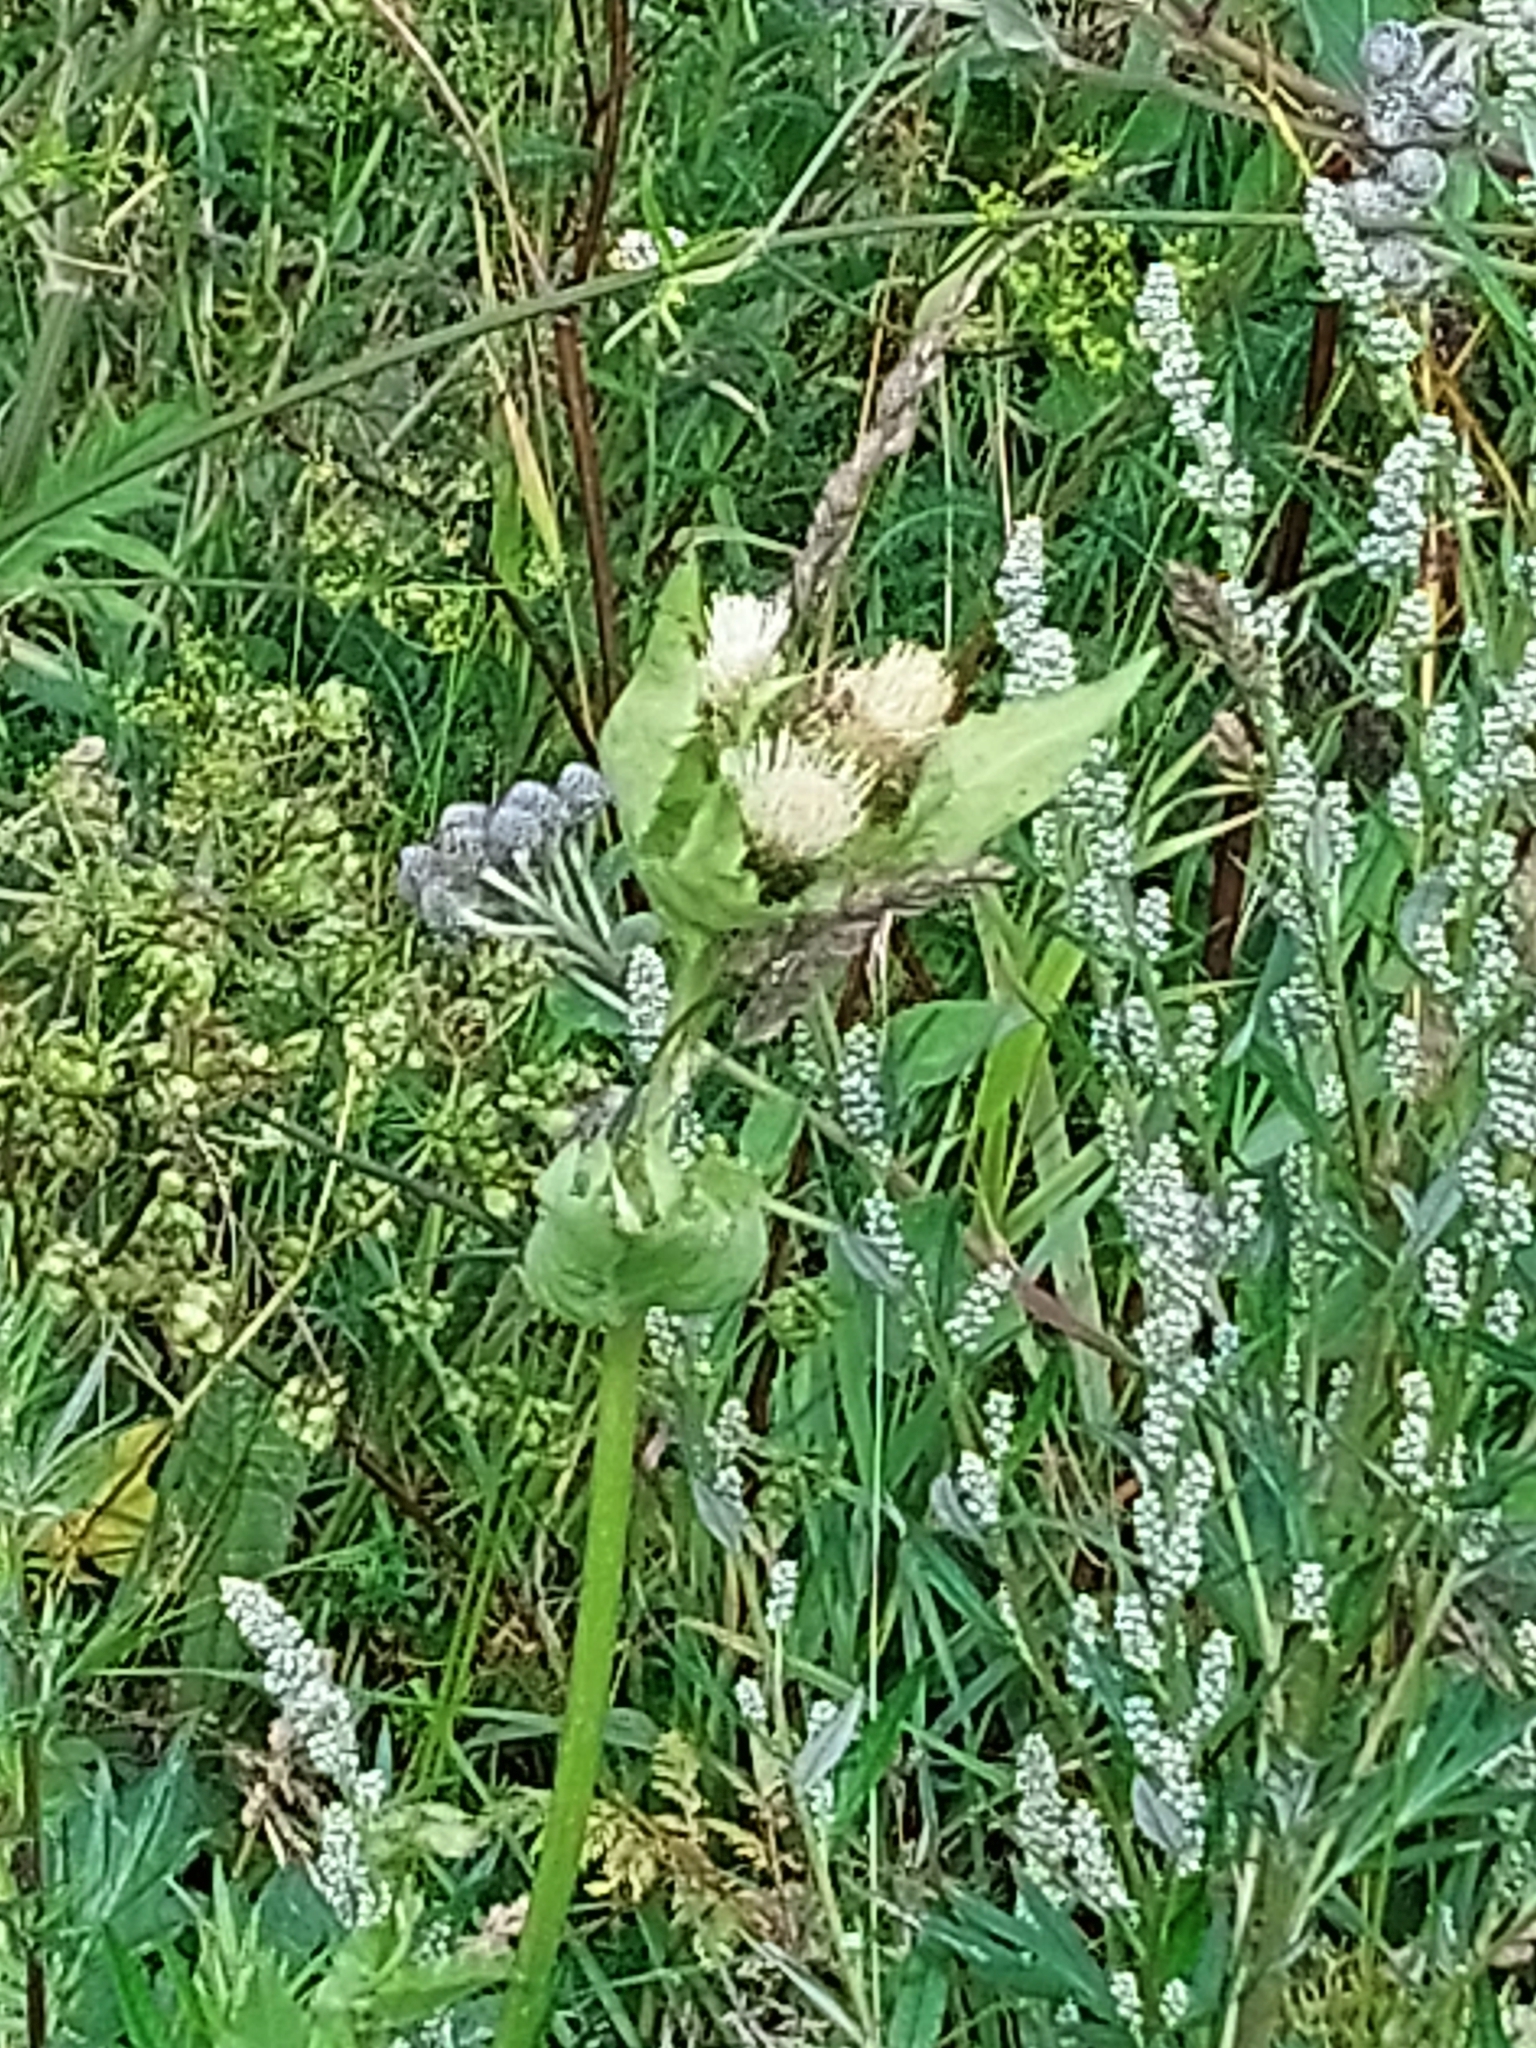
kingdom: Plantae
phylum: Tracheophyta
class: Magnoliopsida
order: Asterales
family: Asteraceae
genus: Cirsium
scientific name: Cirsium oleraceum
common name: Cabbage thistle
